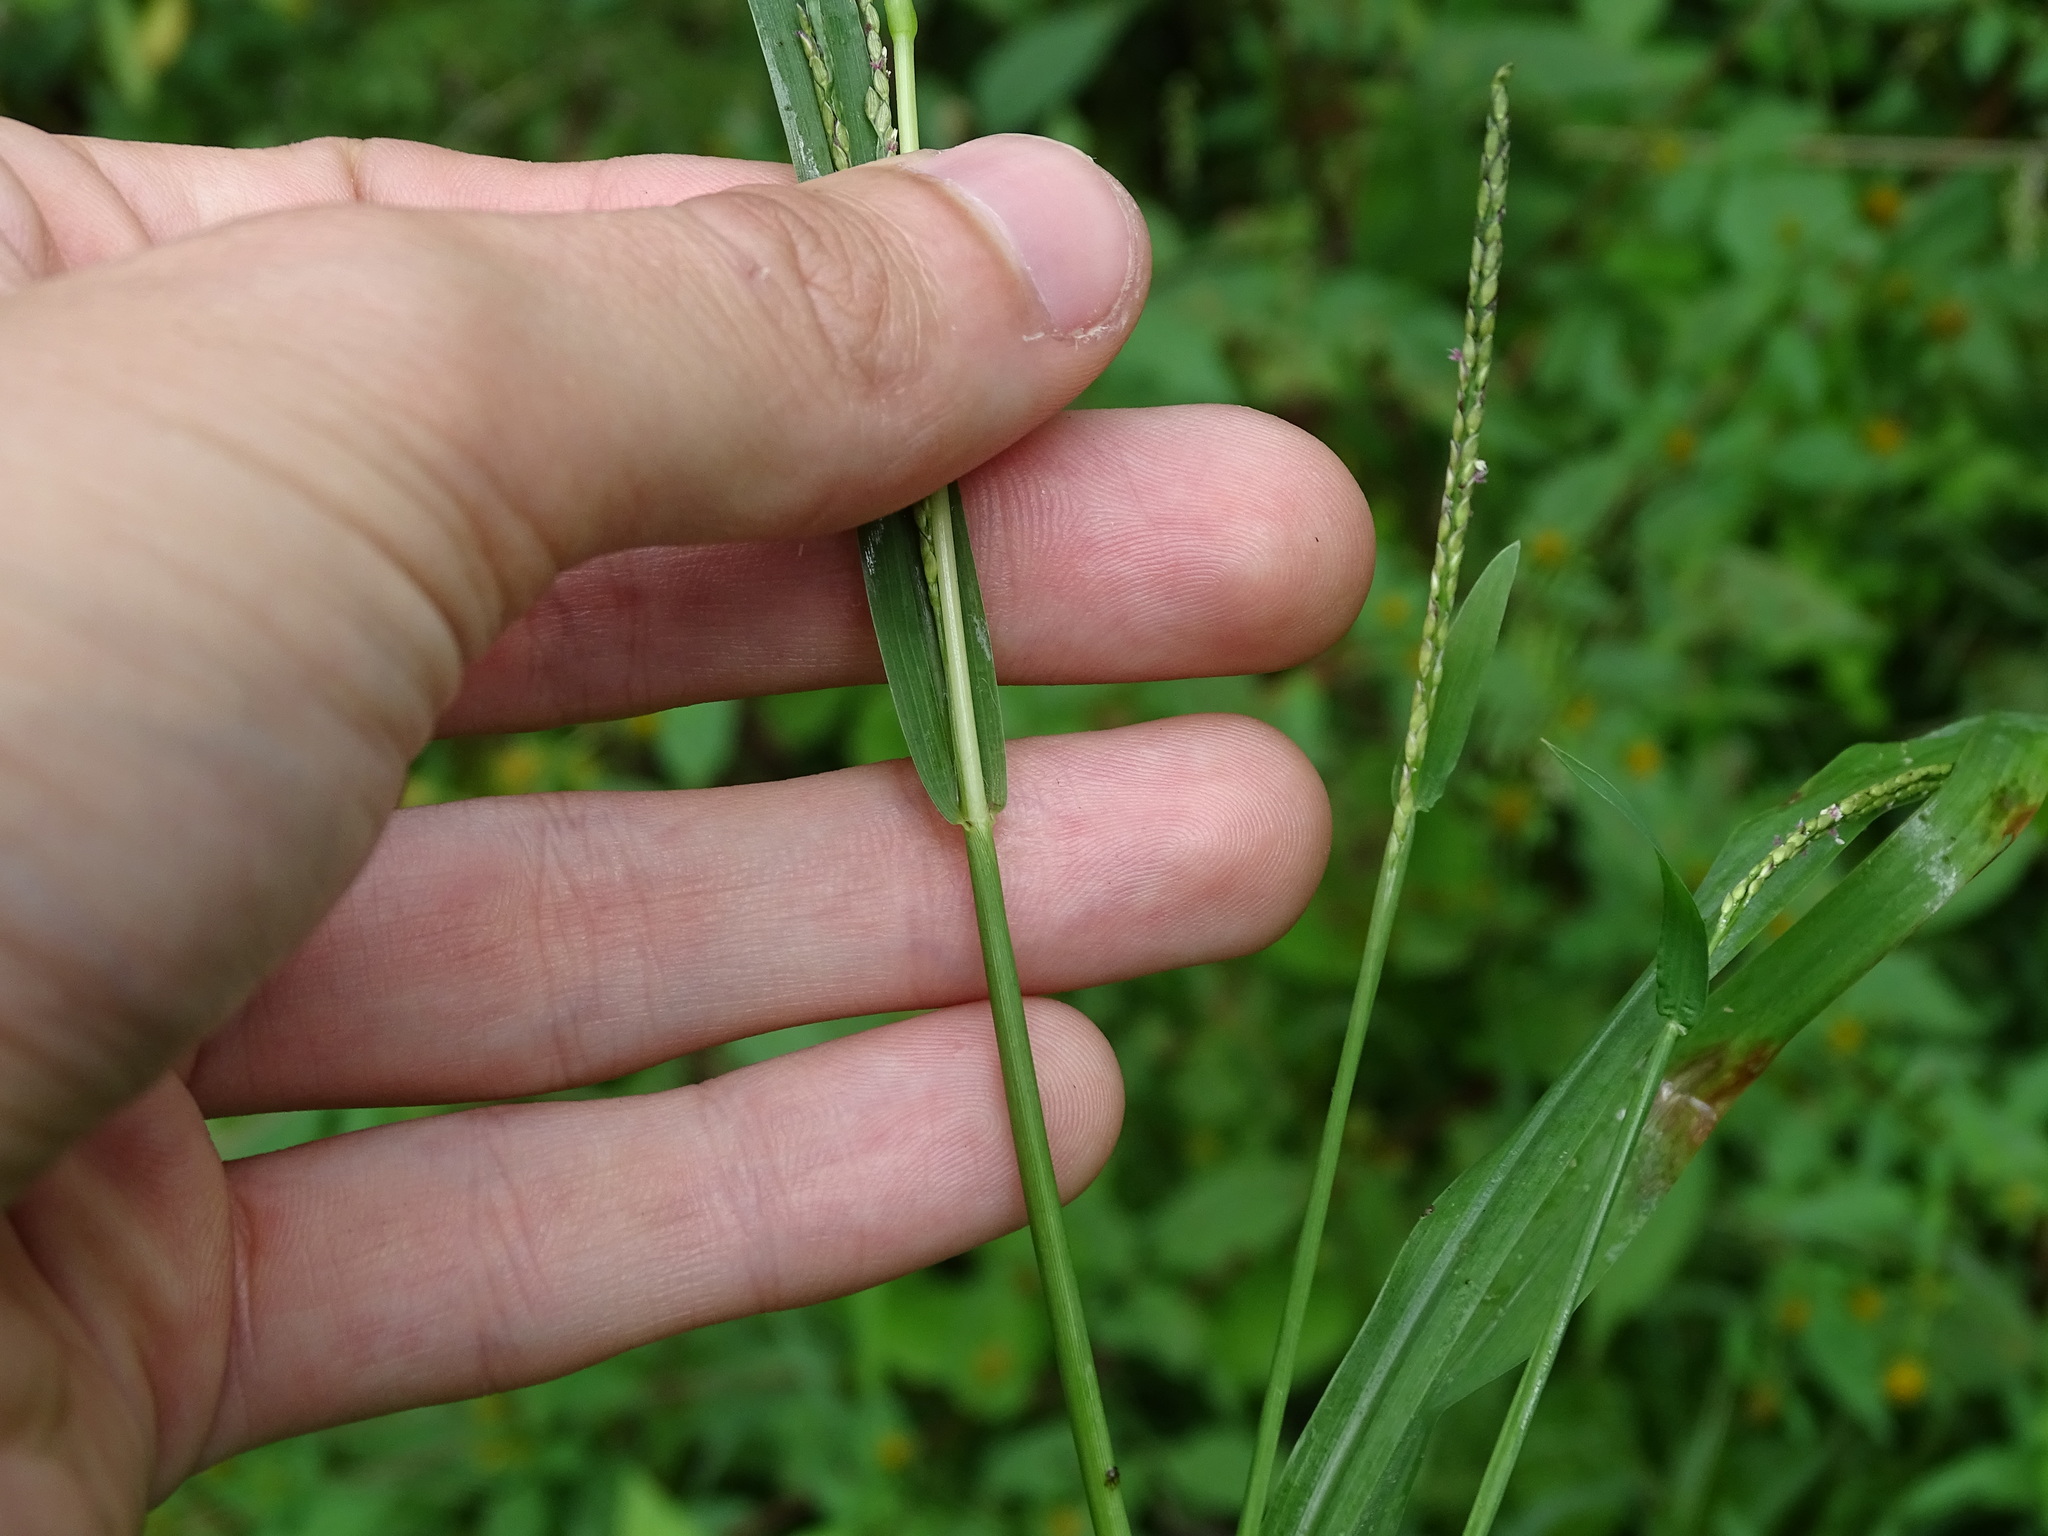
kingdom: Plantae
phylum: Tracheophyta
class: Liliopsida
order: Poales
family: Poaceae
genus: Digitaria
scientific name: Digitaria ischaemum
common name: Smooth crabgrass
